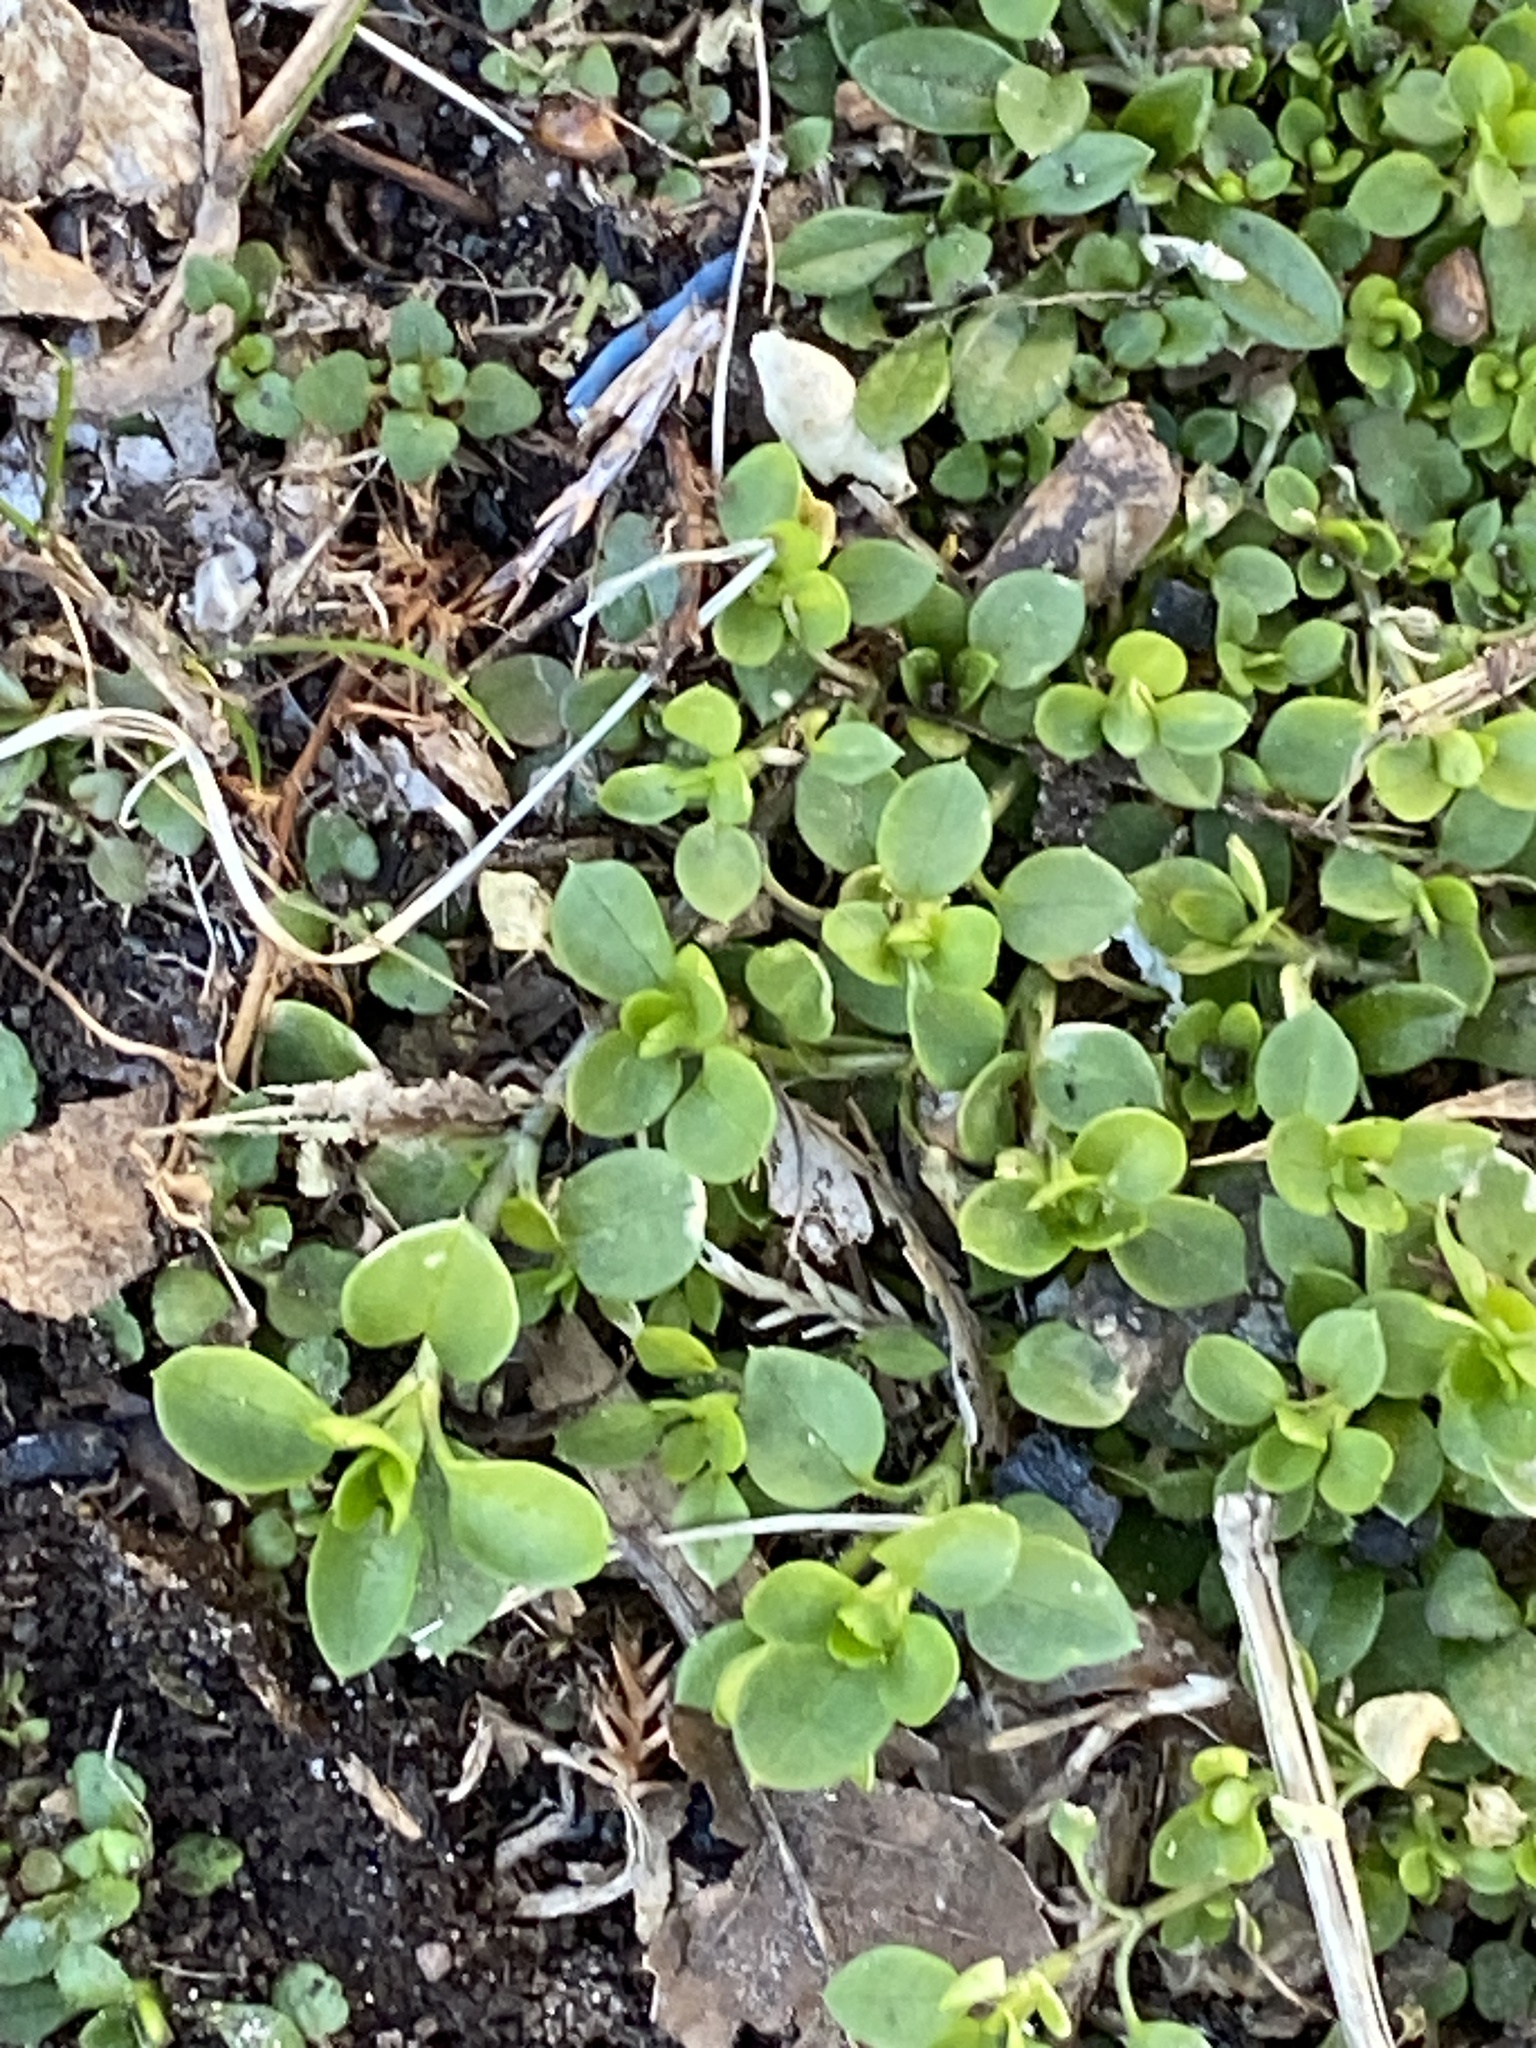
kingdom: Plantae
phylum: Tracheophyta
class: Magnoliopsida
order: Caryophyllales
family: Caryophyllaceae
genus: Stellaria
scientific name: Stellaria media
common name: Common chickweed
